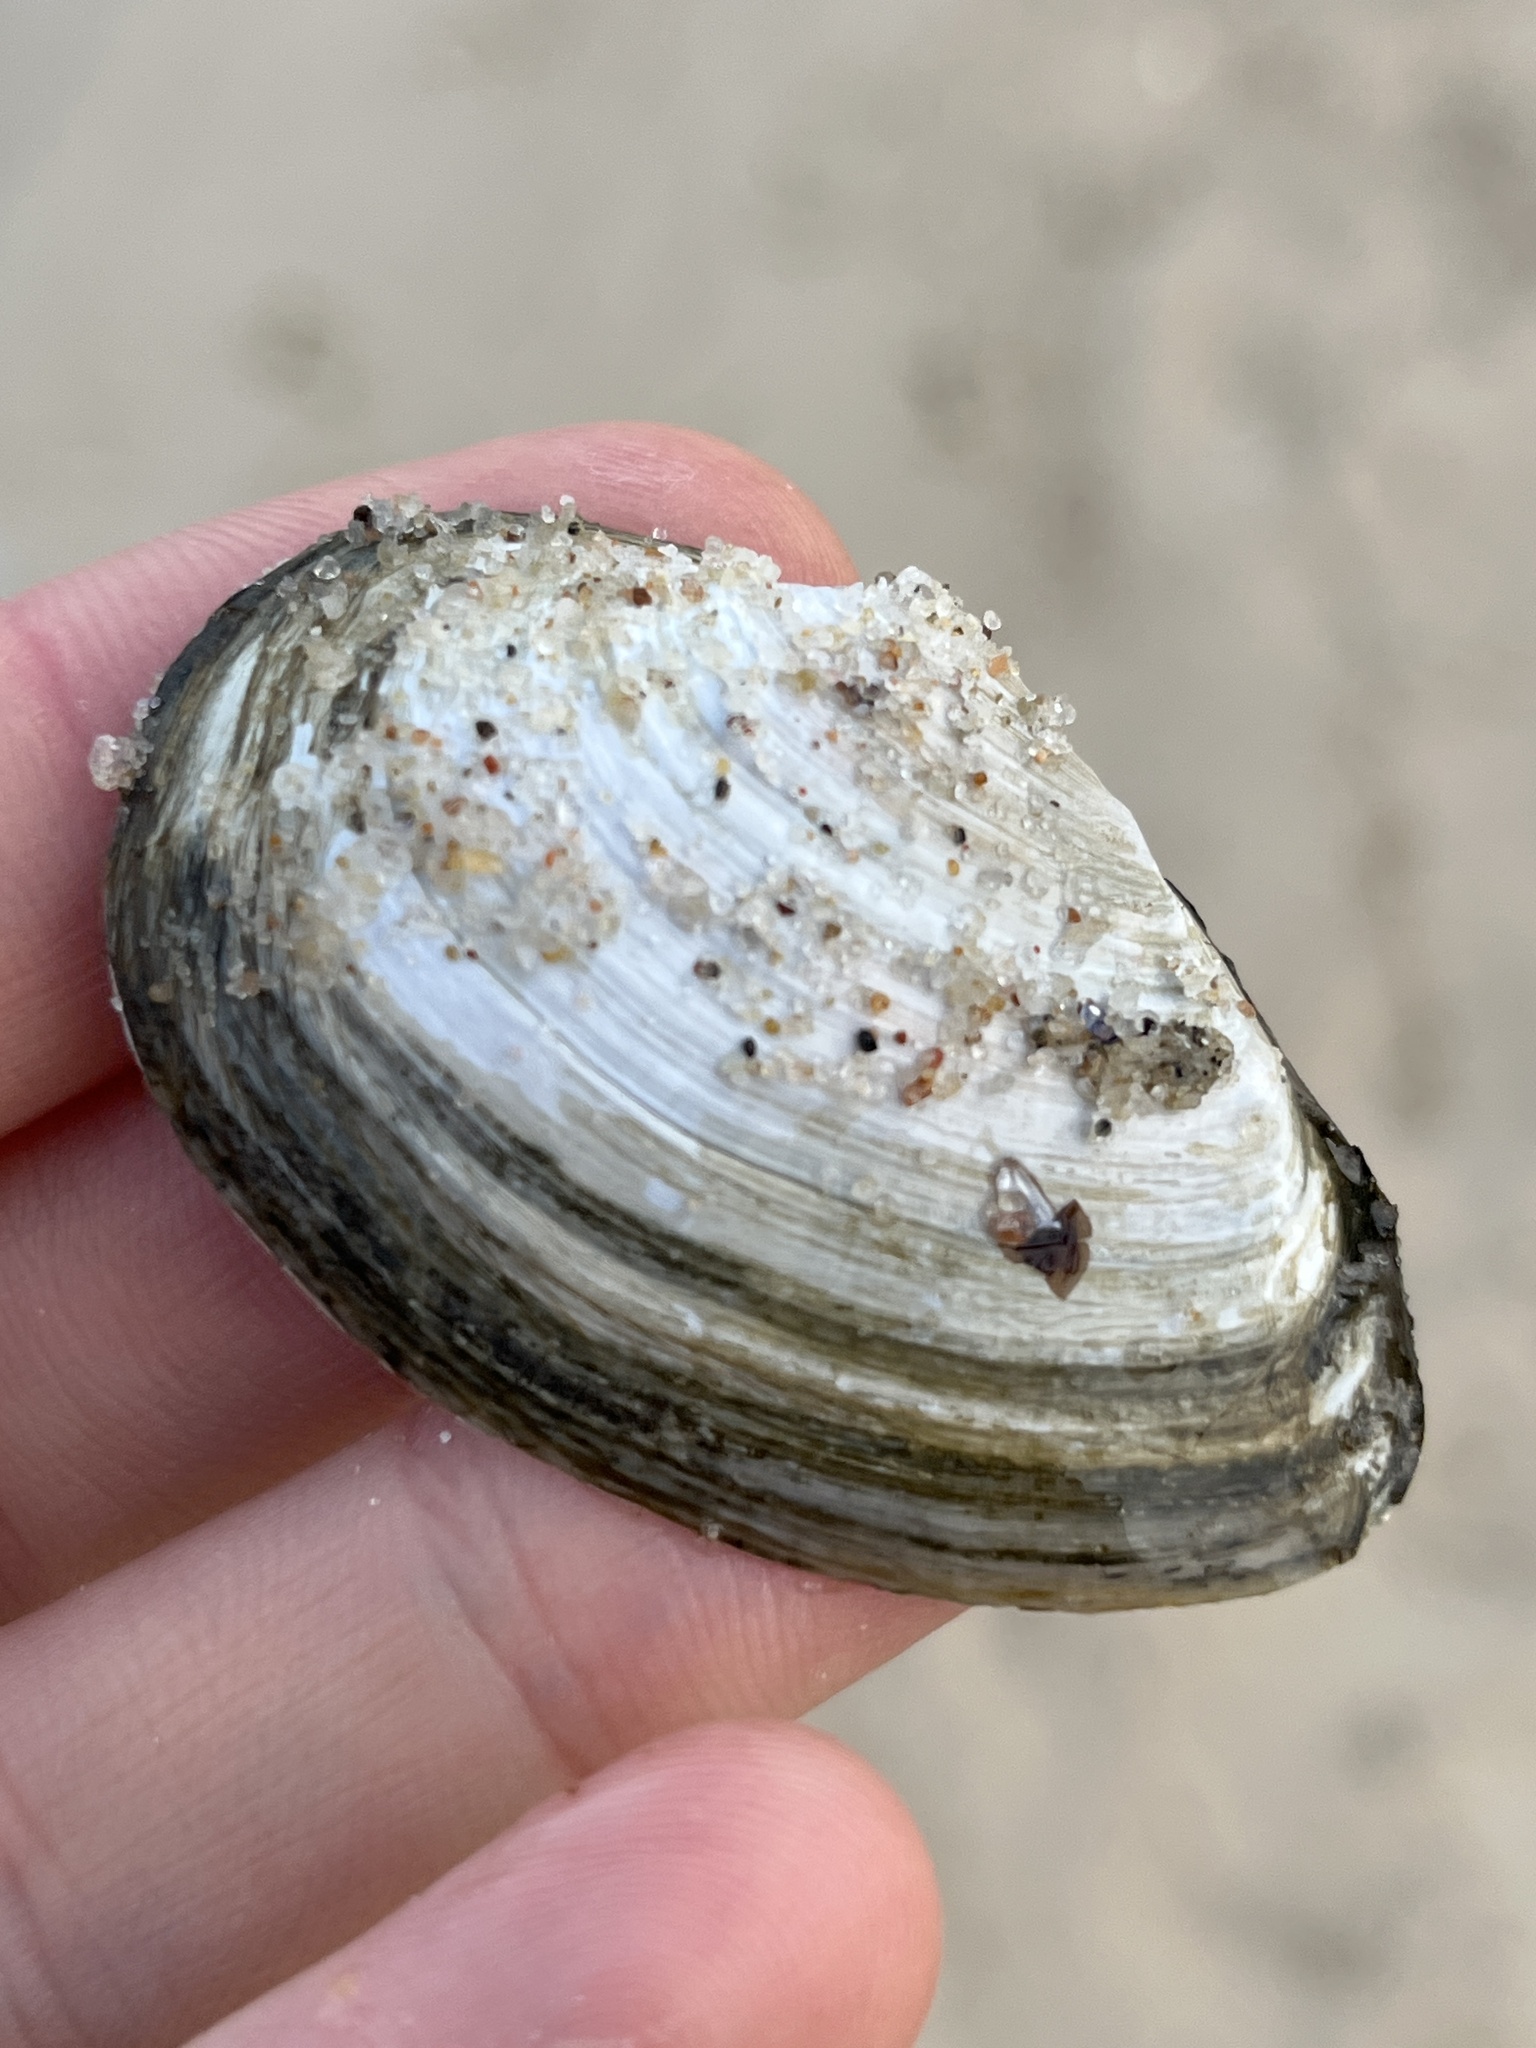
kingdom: Animalia
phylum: Mollusca
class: Bivalvia
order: Myida
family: Myidae
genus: Mya
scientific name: Mya arenaria
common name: Soft-shelled clam
